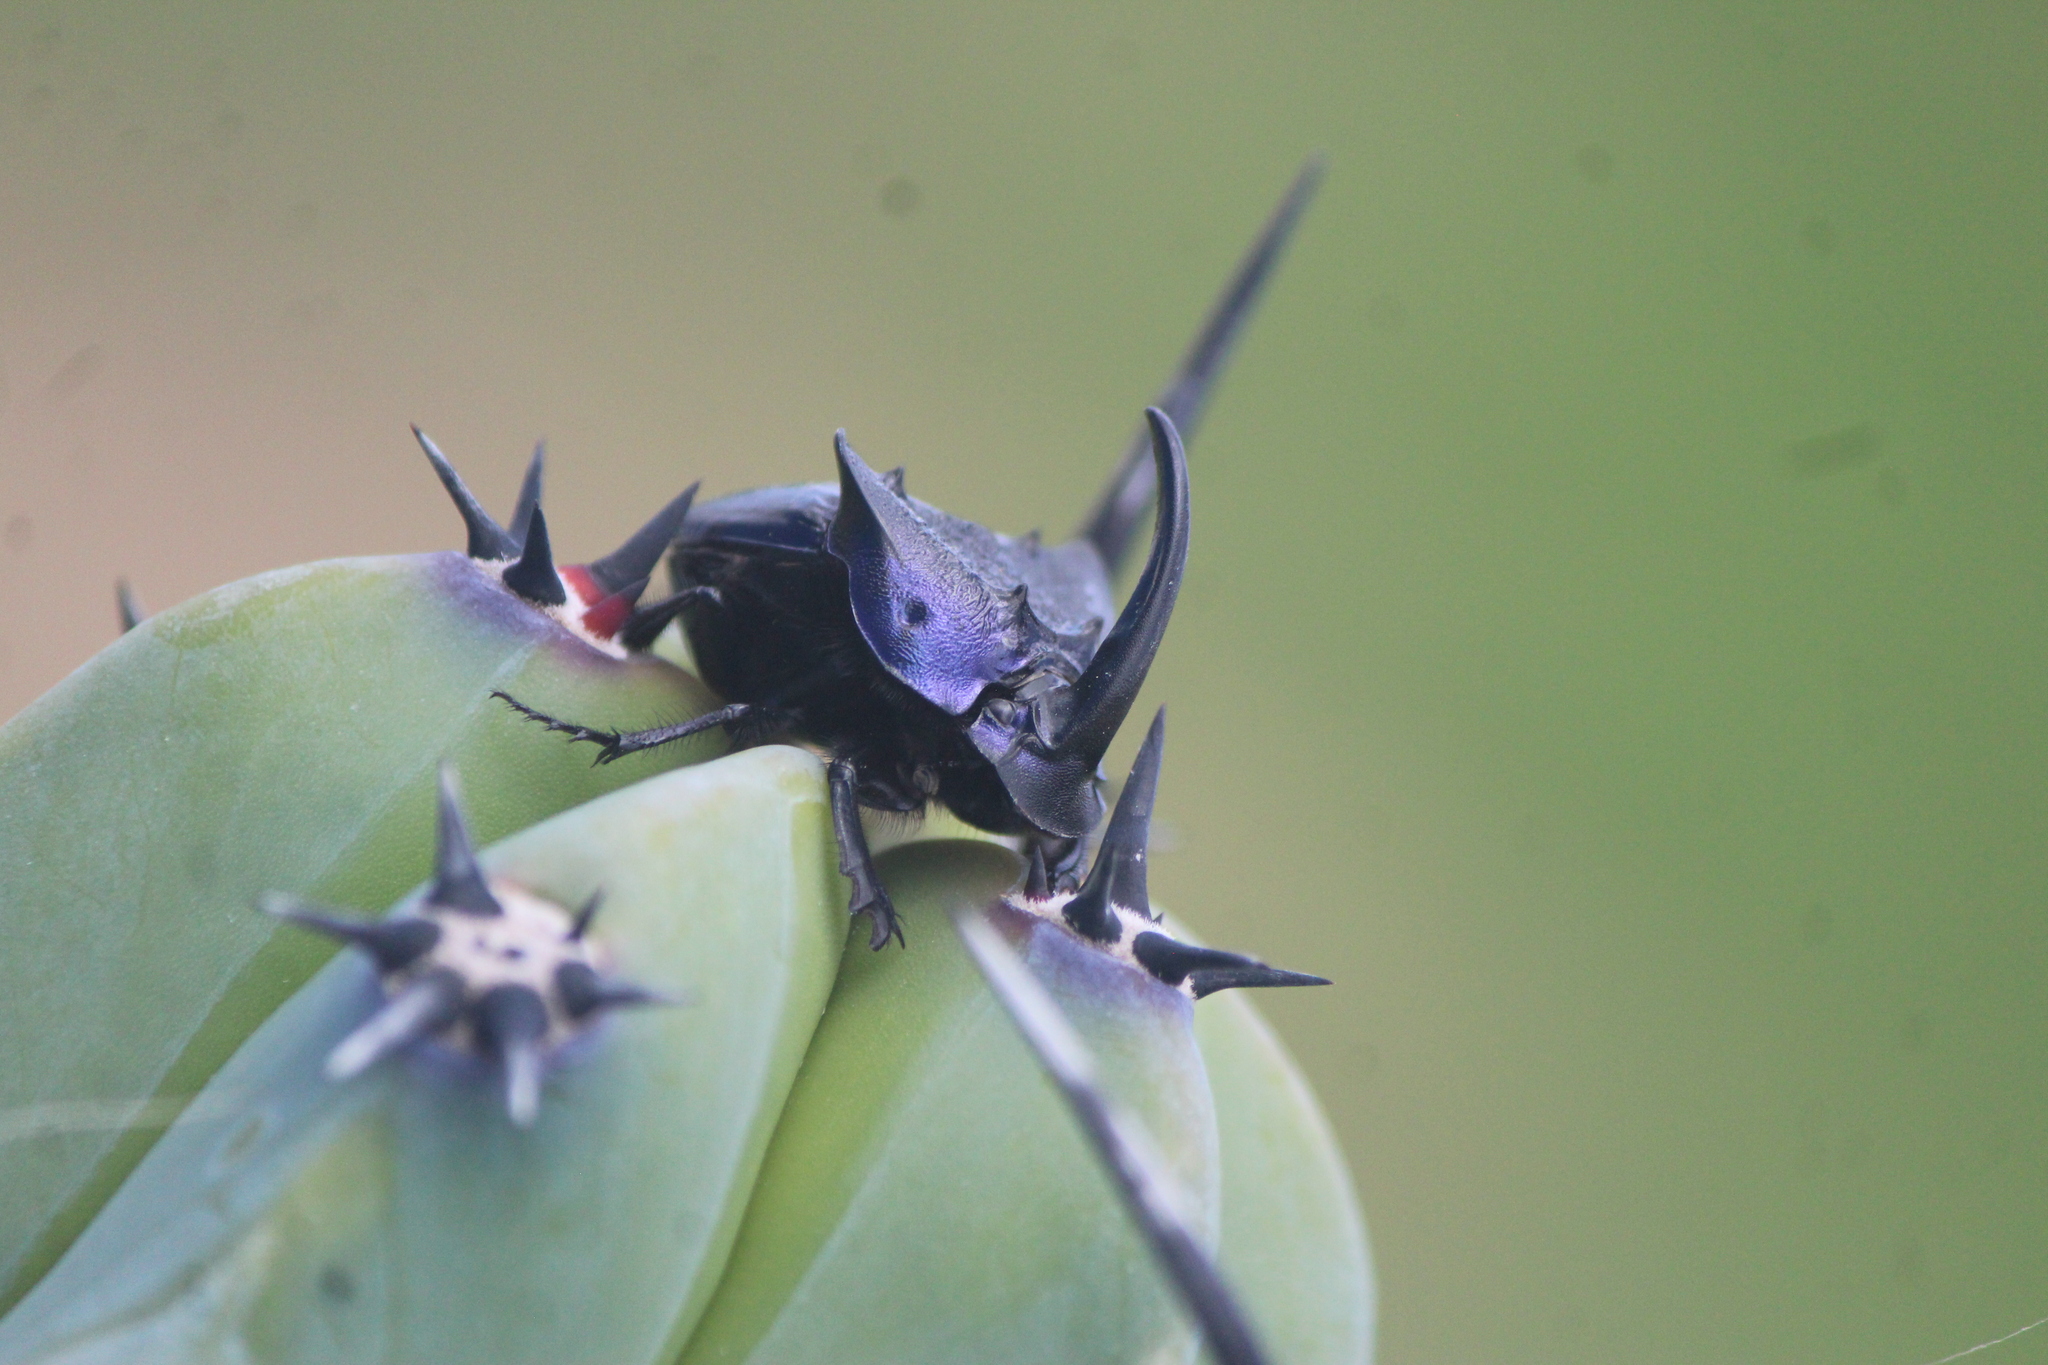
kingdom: Animalia
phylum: Arthropoda
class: Insecta
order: Coleoptera
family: Scarabaeidae
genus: Phanaeus
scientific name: Phanaeus quadridens
